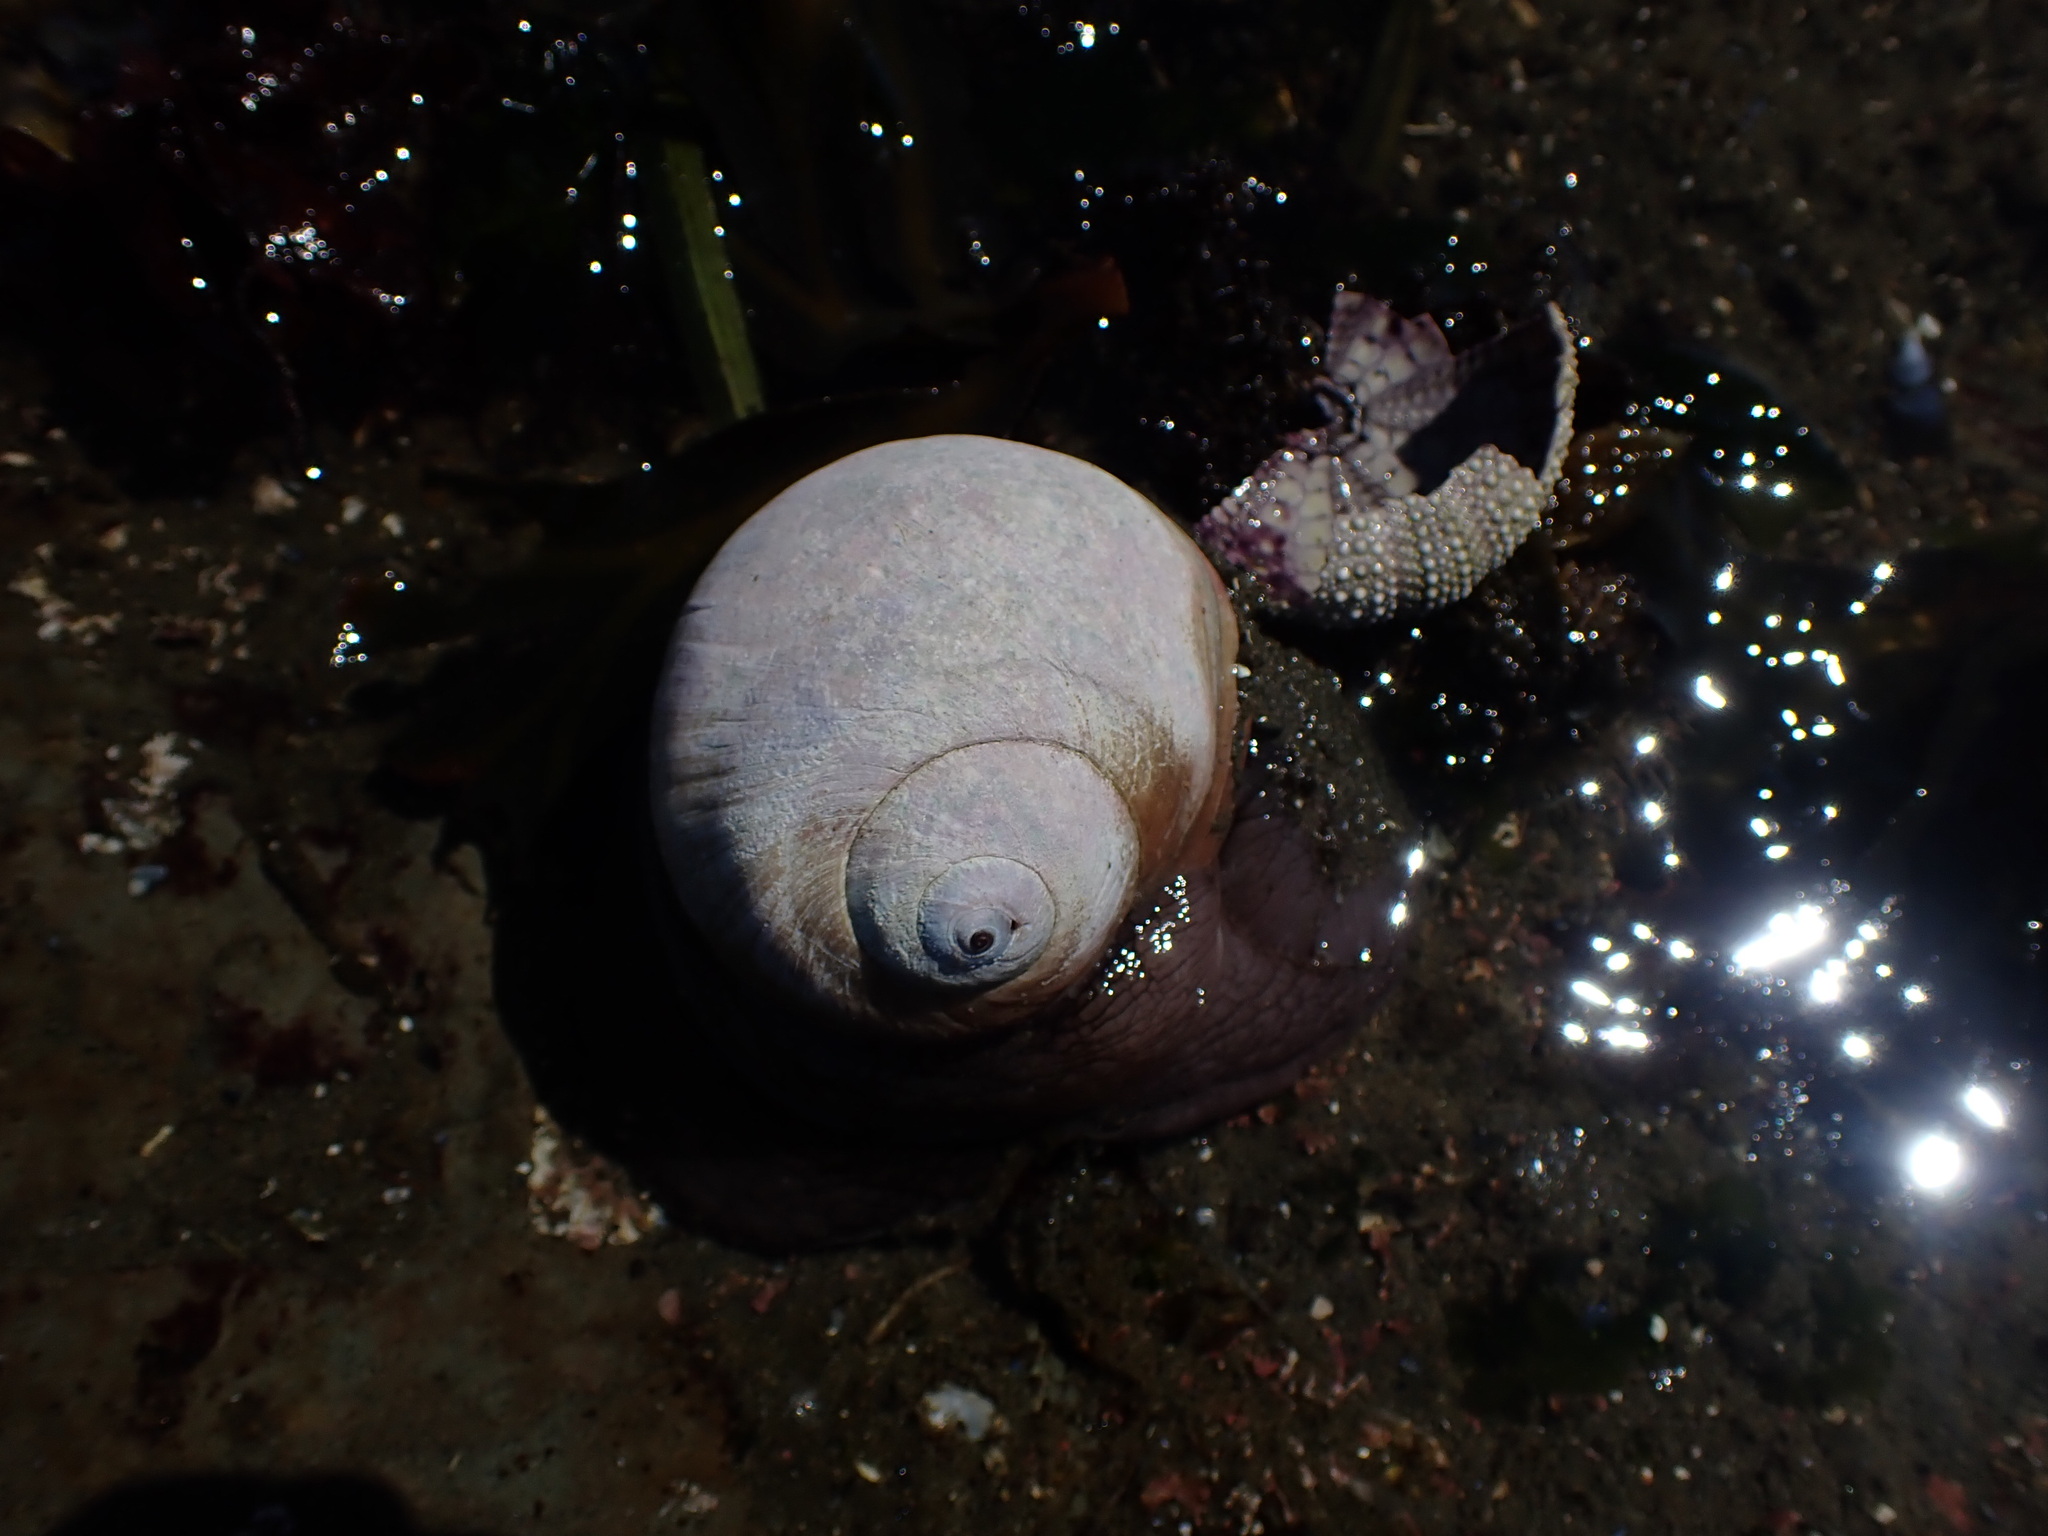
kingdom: Animalia
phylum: Mollusca
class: Gastropoda
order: Littorinimorpha
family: Naticidae
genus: Neverita
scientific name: Neverita lewisii
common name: Lewis' moonsnail
